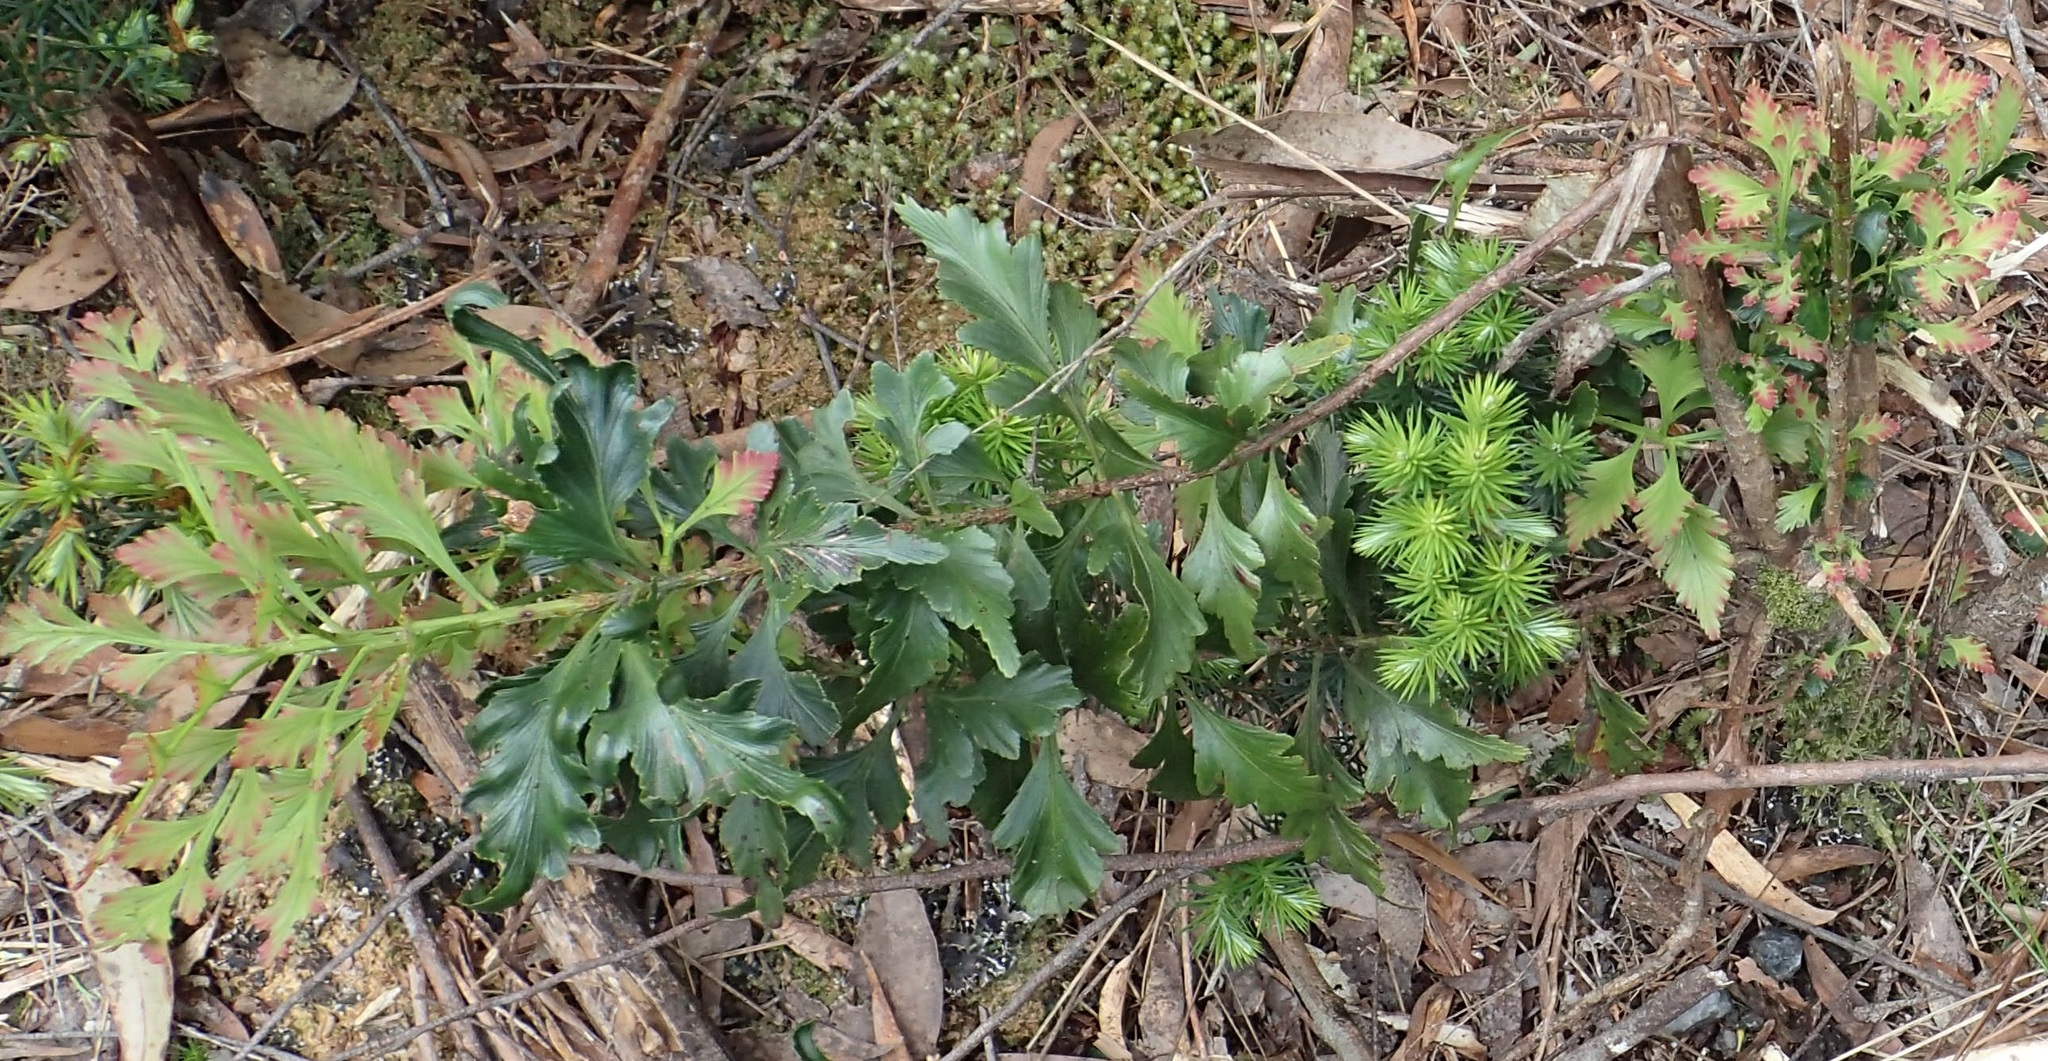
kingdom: Plantae
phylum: Tracheophyta
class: Pinopsida
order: Pinales
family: Phyllocladaceae
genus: Phyllocladus
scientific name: Phyllocladus aspleniifolius
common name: Celery-top pine
